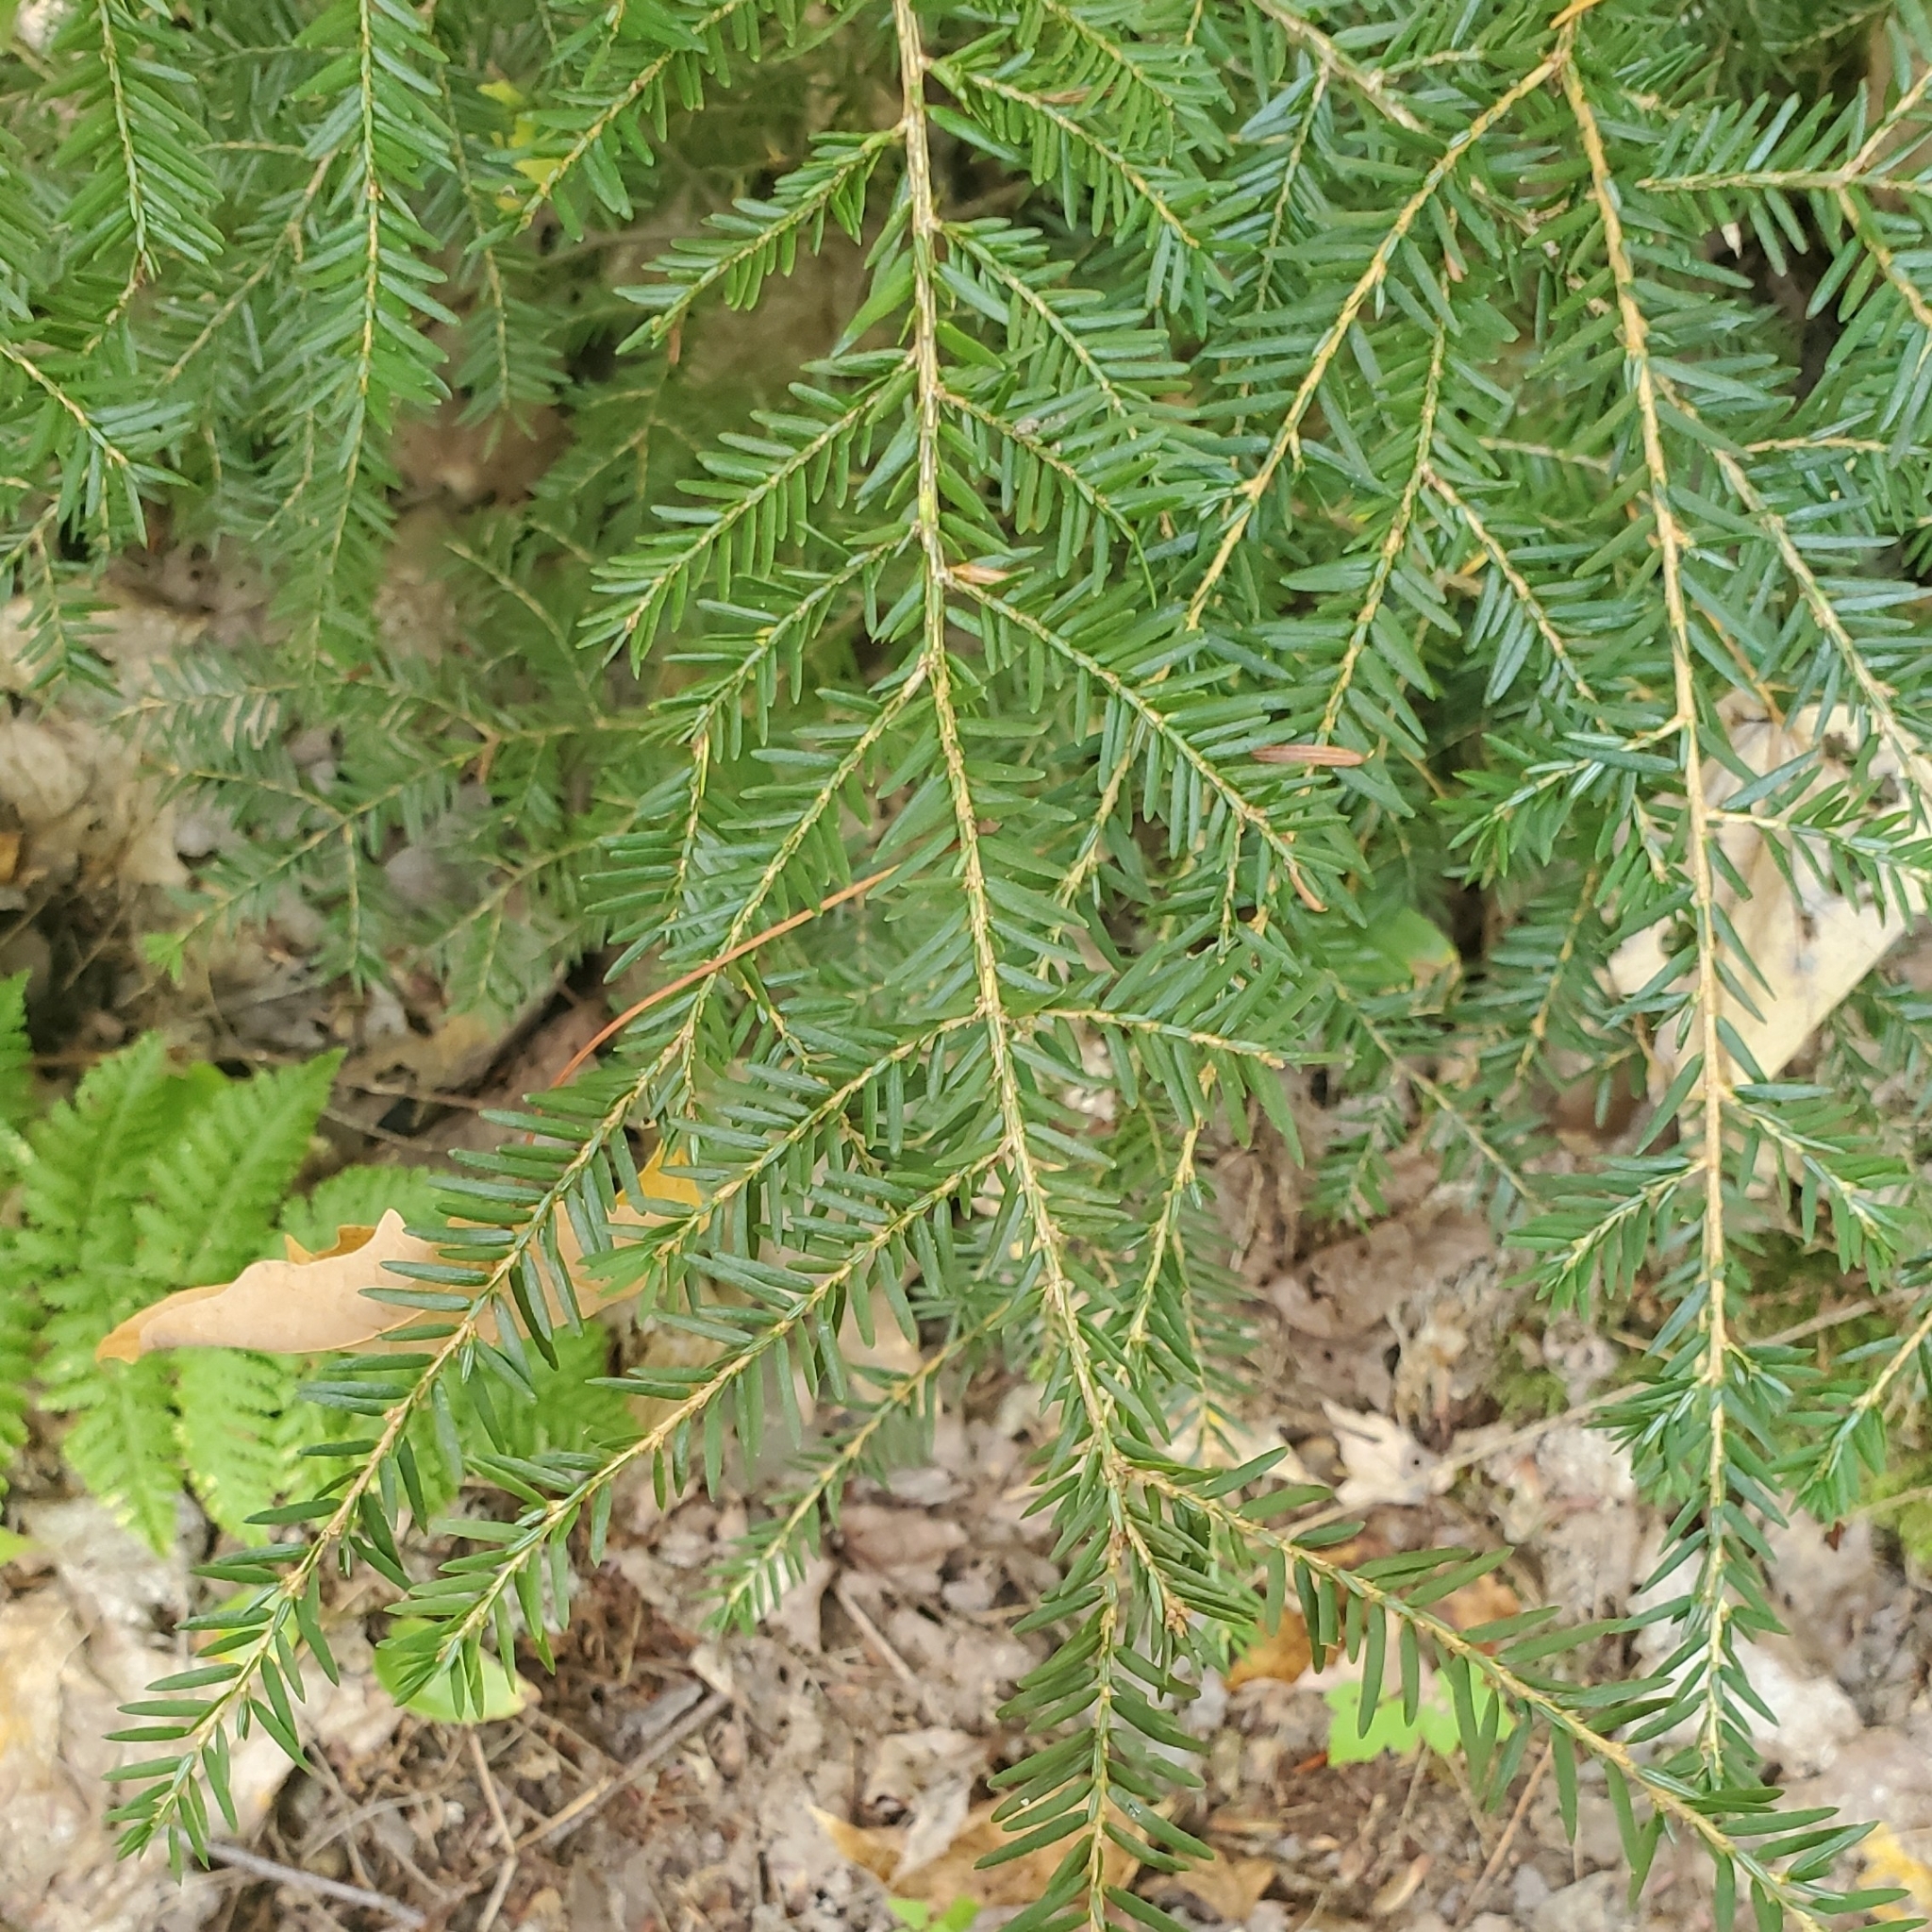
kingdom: Plantae
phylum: Tracheophyta
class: Pinopsida
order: Pinales
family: Pinaceae
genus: Tsuga
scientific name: Tsuga canadensis
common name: Eastern hemlock
